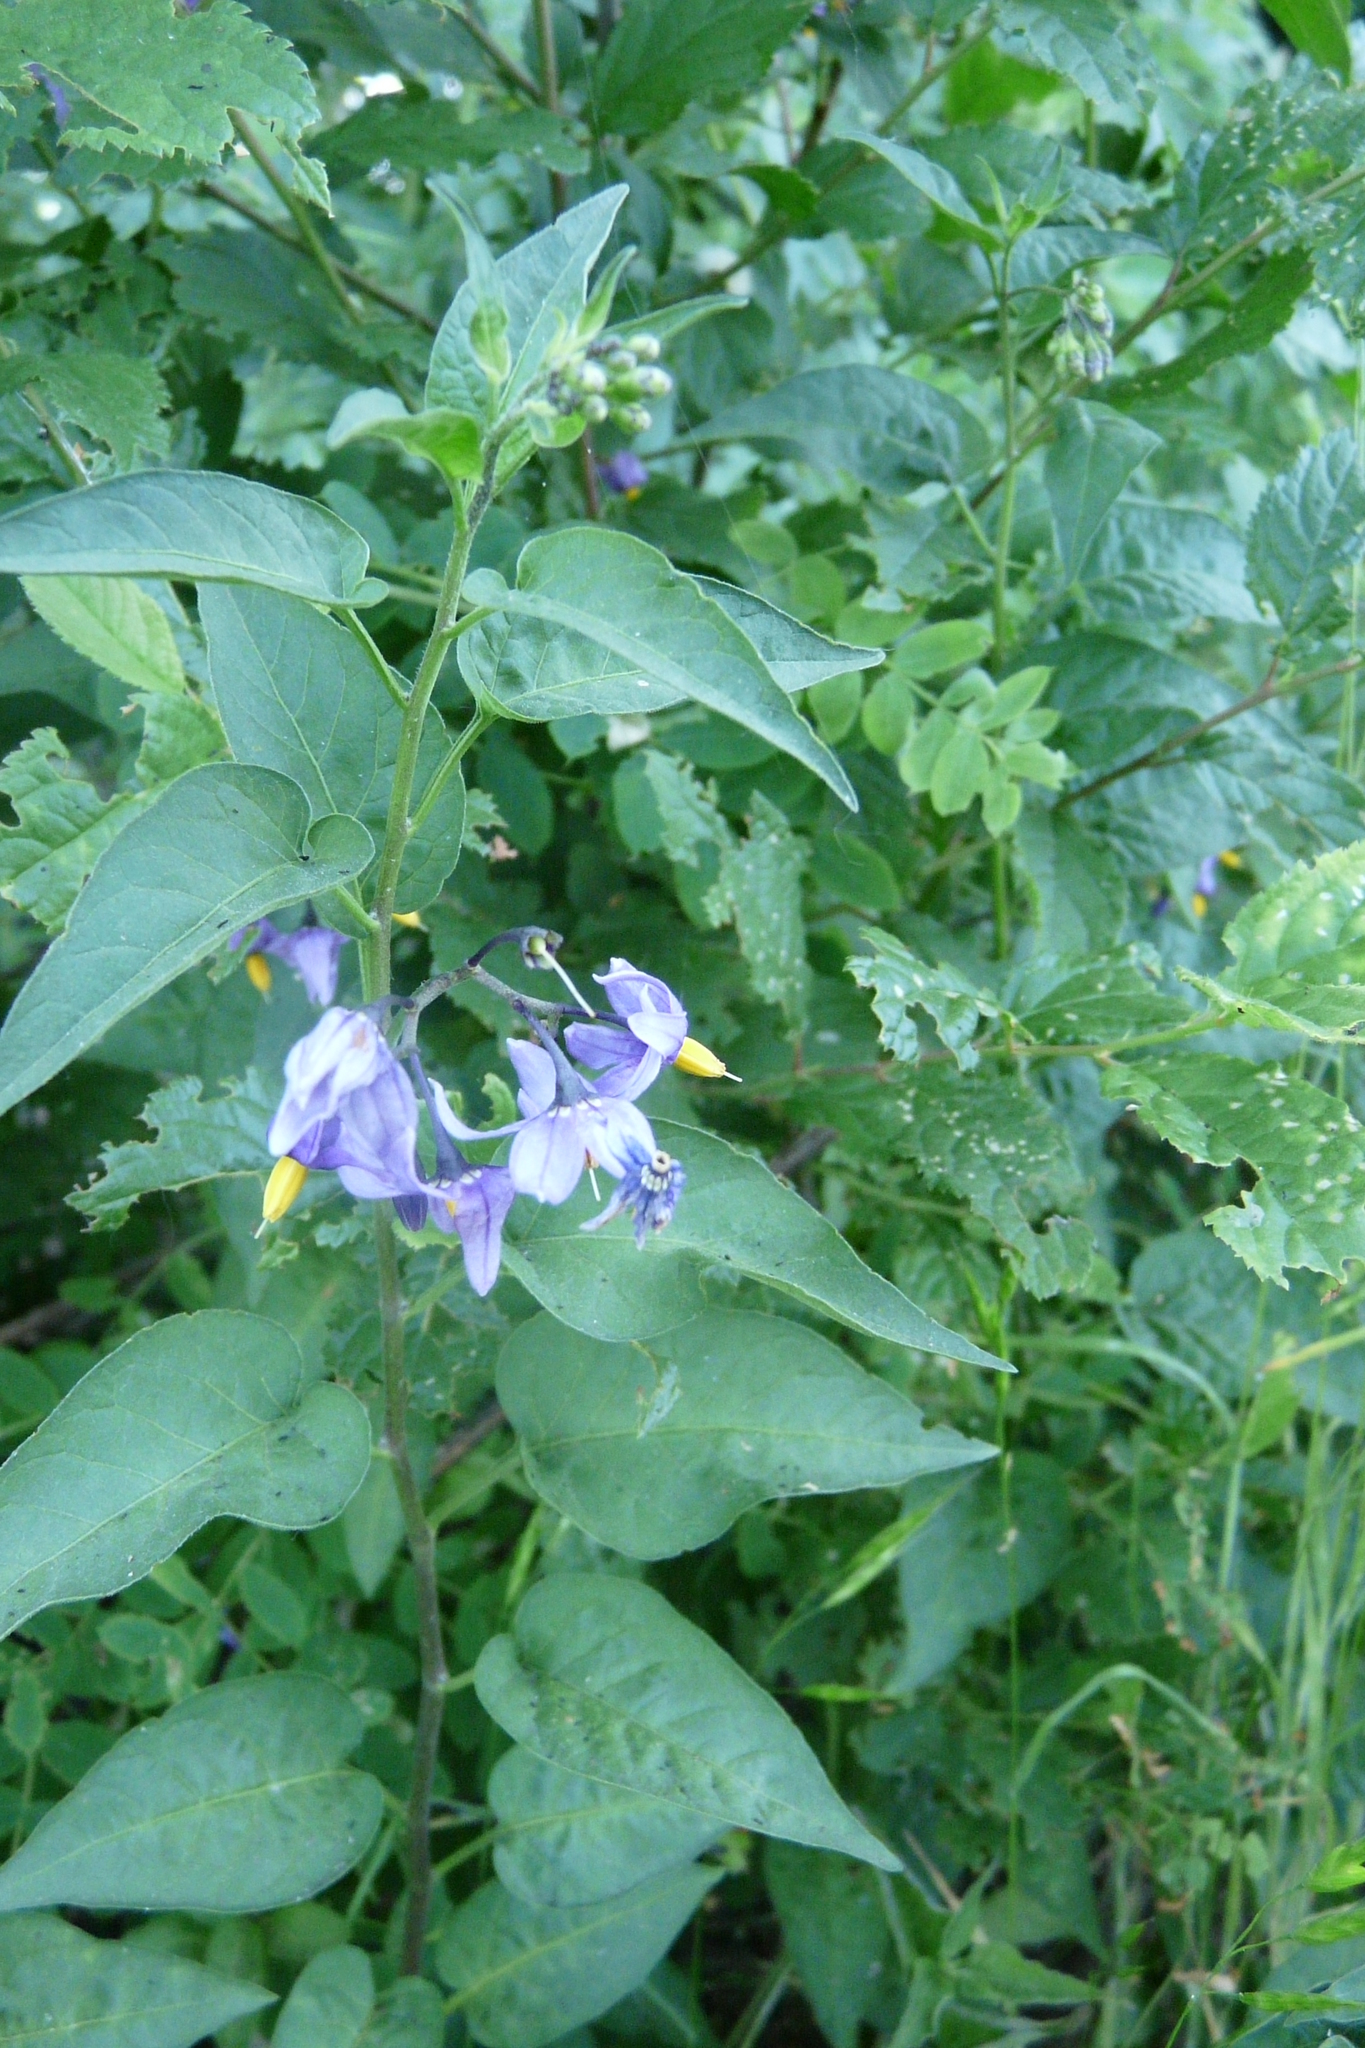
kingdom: Plantae
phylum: Tracheophyta
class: Magnoliopsida
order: Solanales
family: Solanaceae
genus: Solanum
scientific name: Solanum dulcamara
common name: Climbing nightshade
